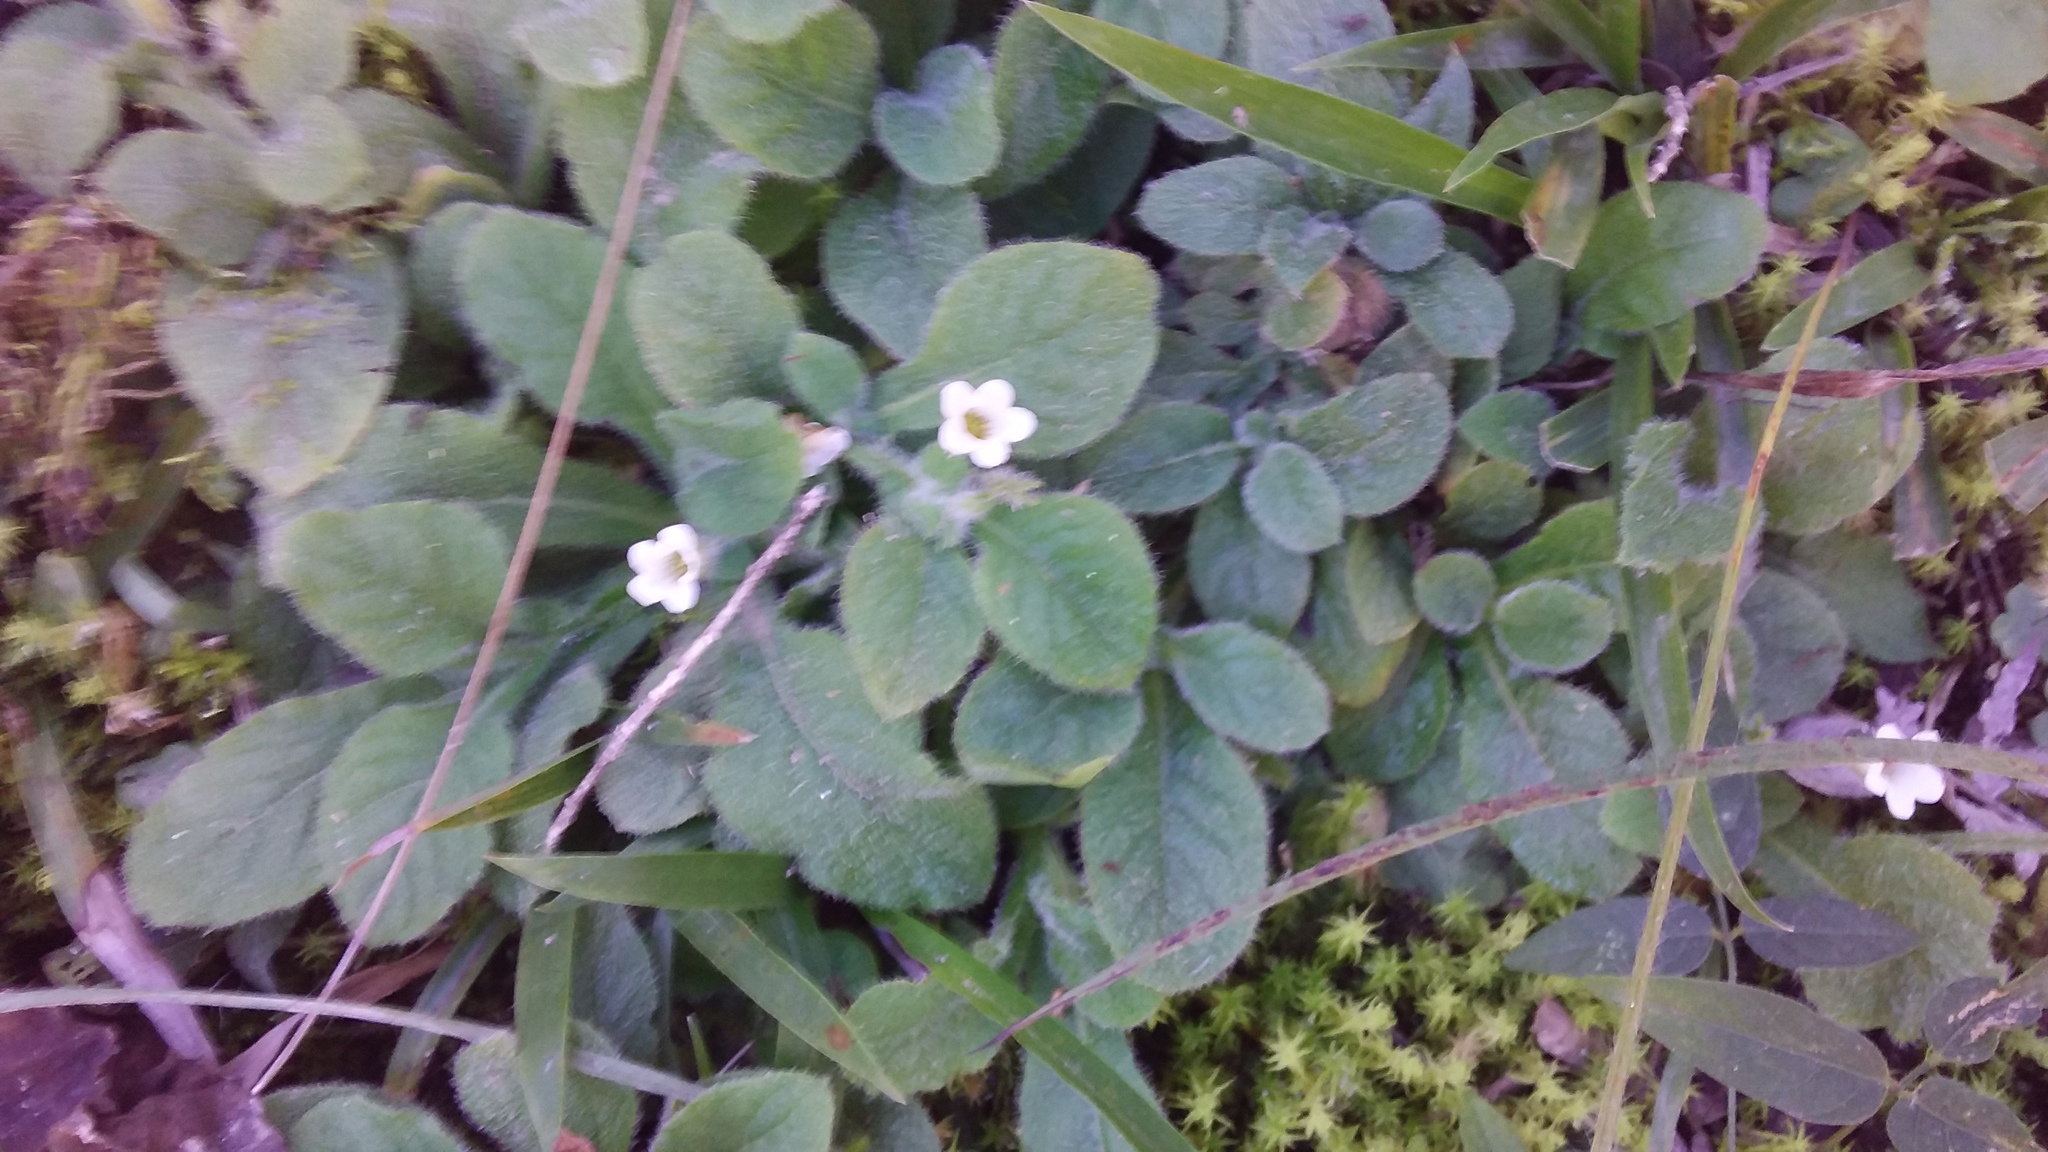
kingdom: Plantae
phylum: Tracheophyta
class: Magnoliopsida
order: Boraginales
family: Namaceae
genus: Nama
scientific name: Nama jamaicensis
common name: Jamaicanweed
